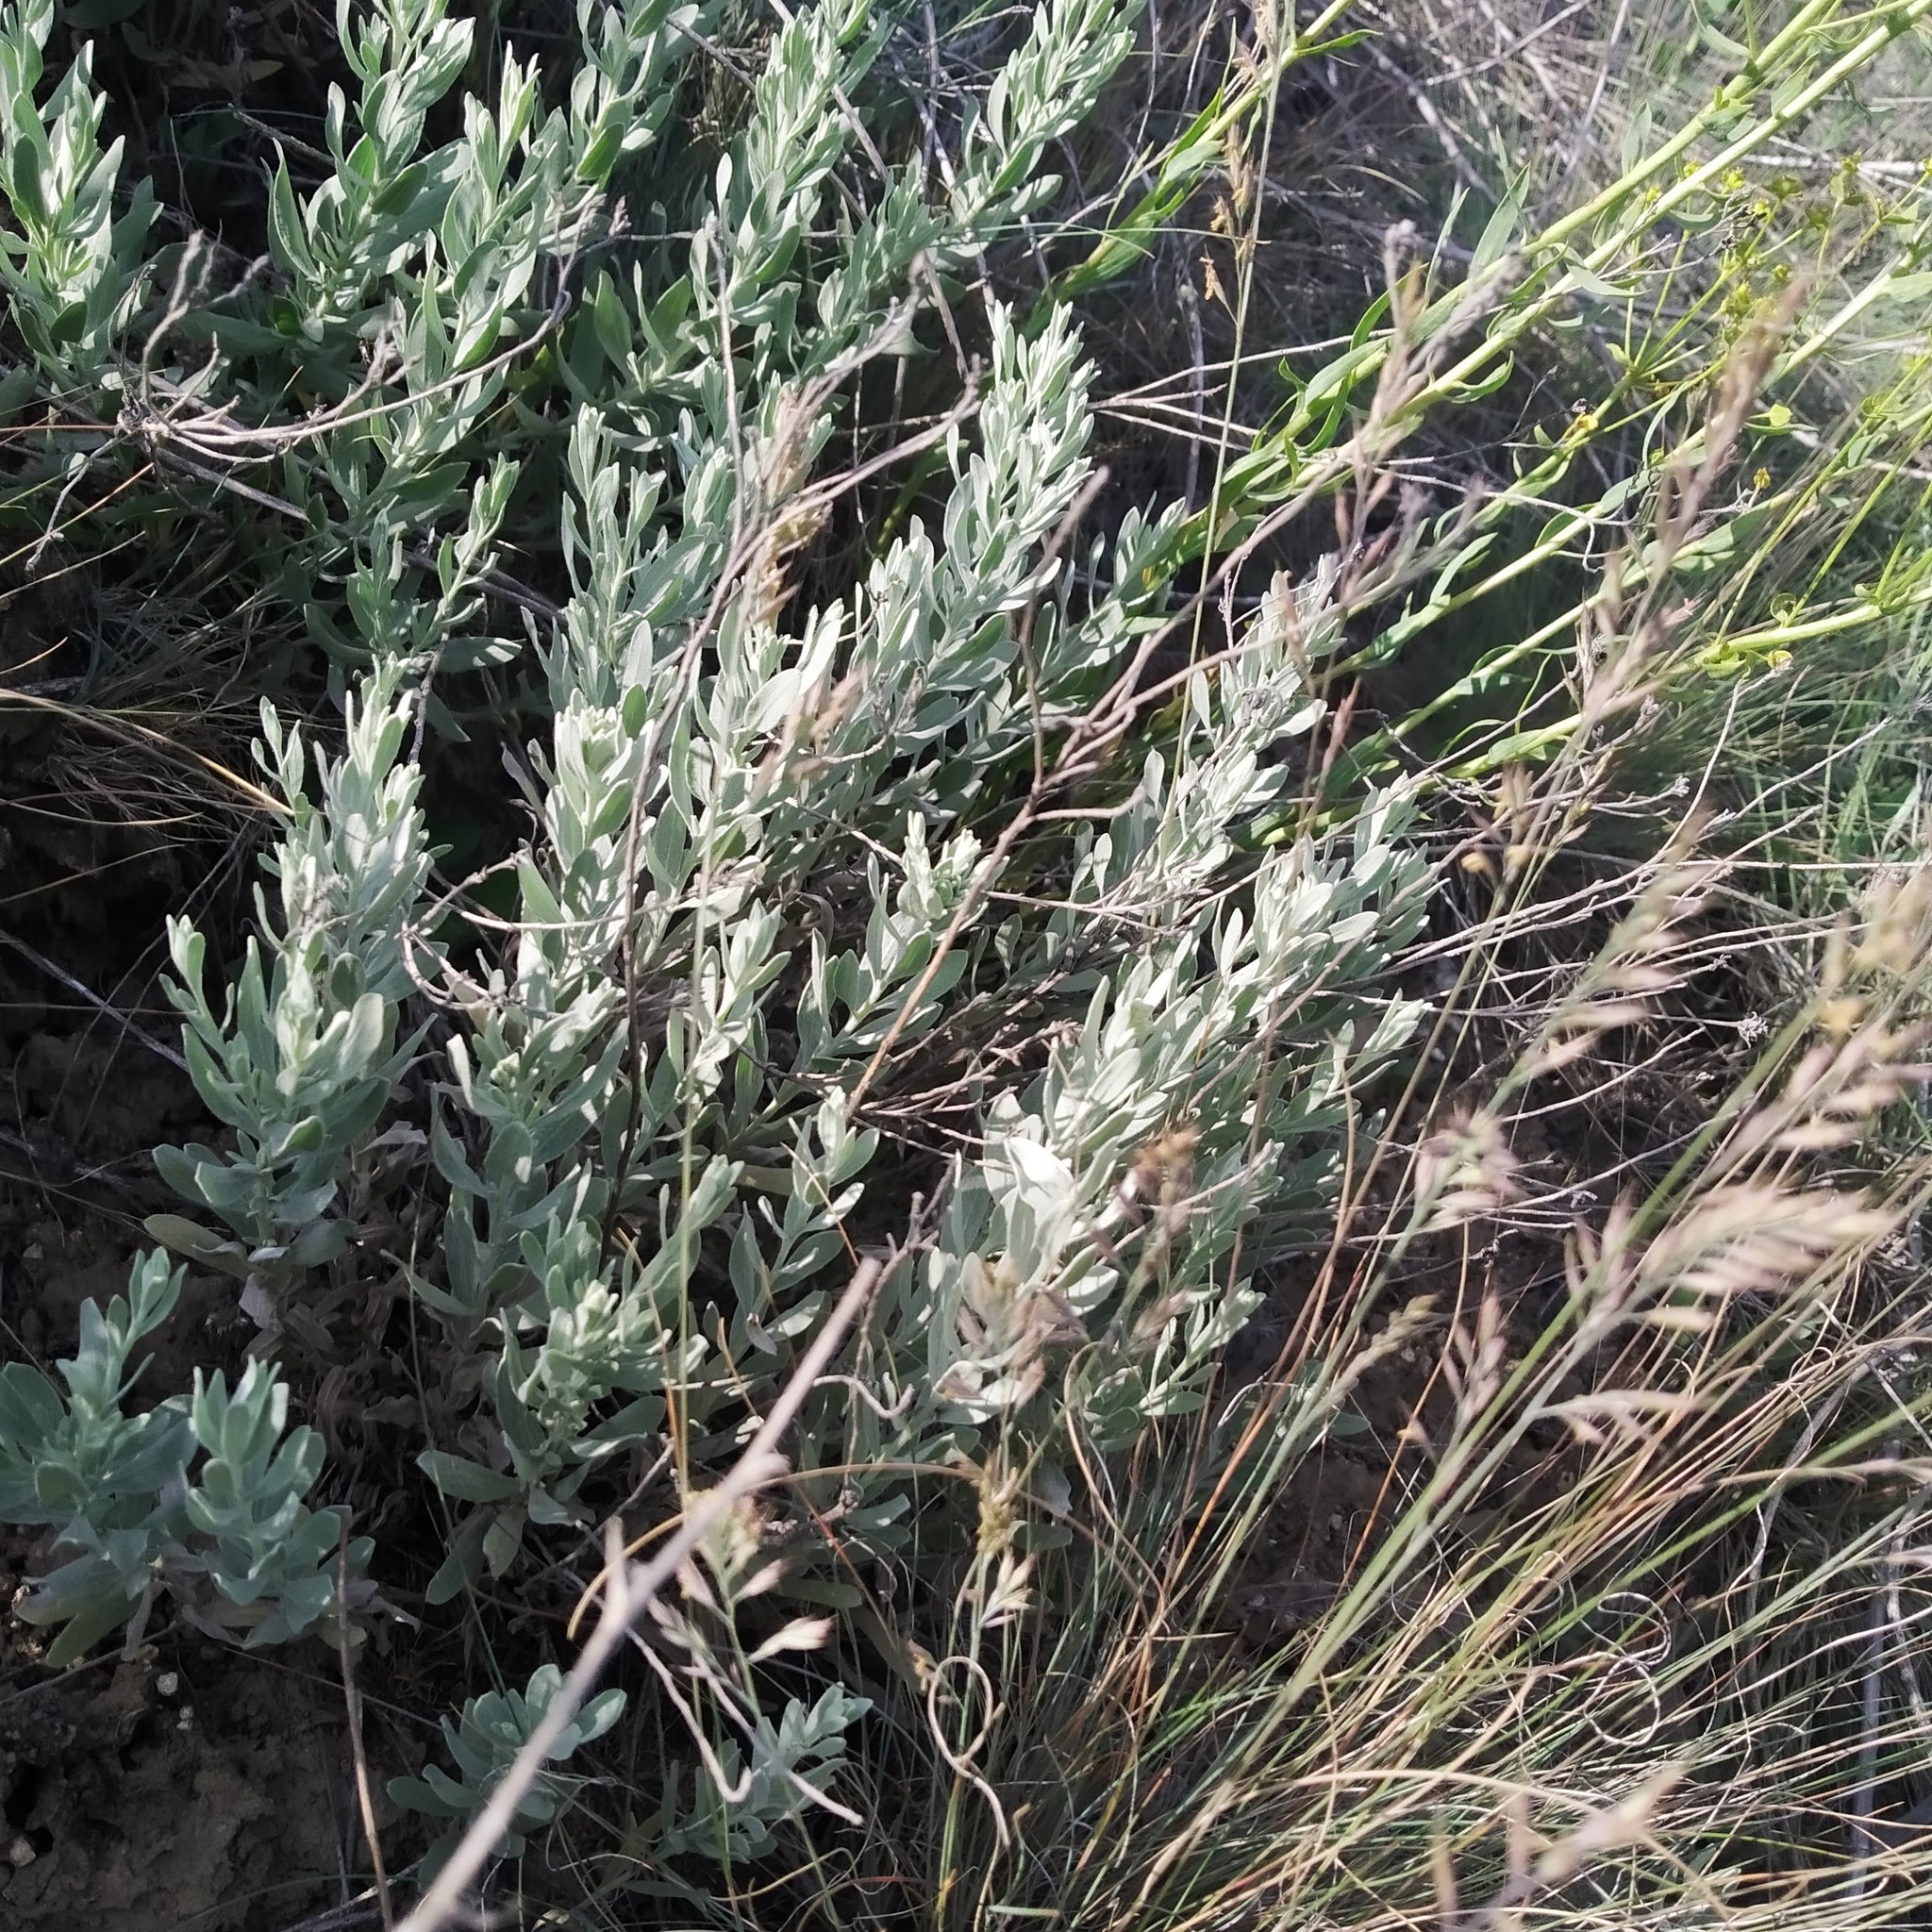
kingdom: Plantae
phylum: Tracheophyta
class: Magnoliopsida
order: Asterales
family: Asteraceae
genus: Galatella
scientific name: Galatella villosa
